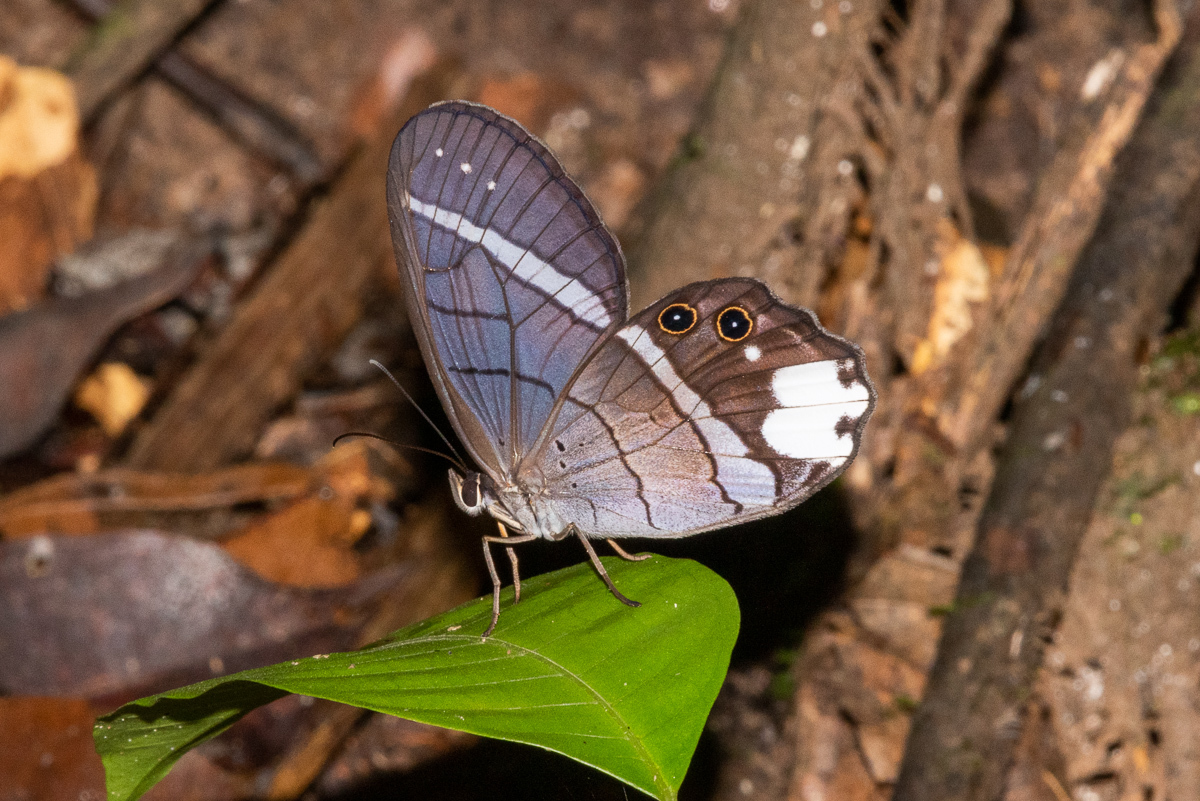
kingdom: Animalia
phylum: Arthropoda
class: Insecta
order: Lepidoptera
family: Nymphalidae
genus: Pierella
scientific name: Pierella astyoche
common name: Astyoche satyr
